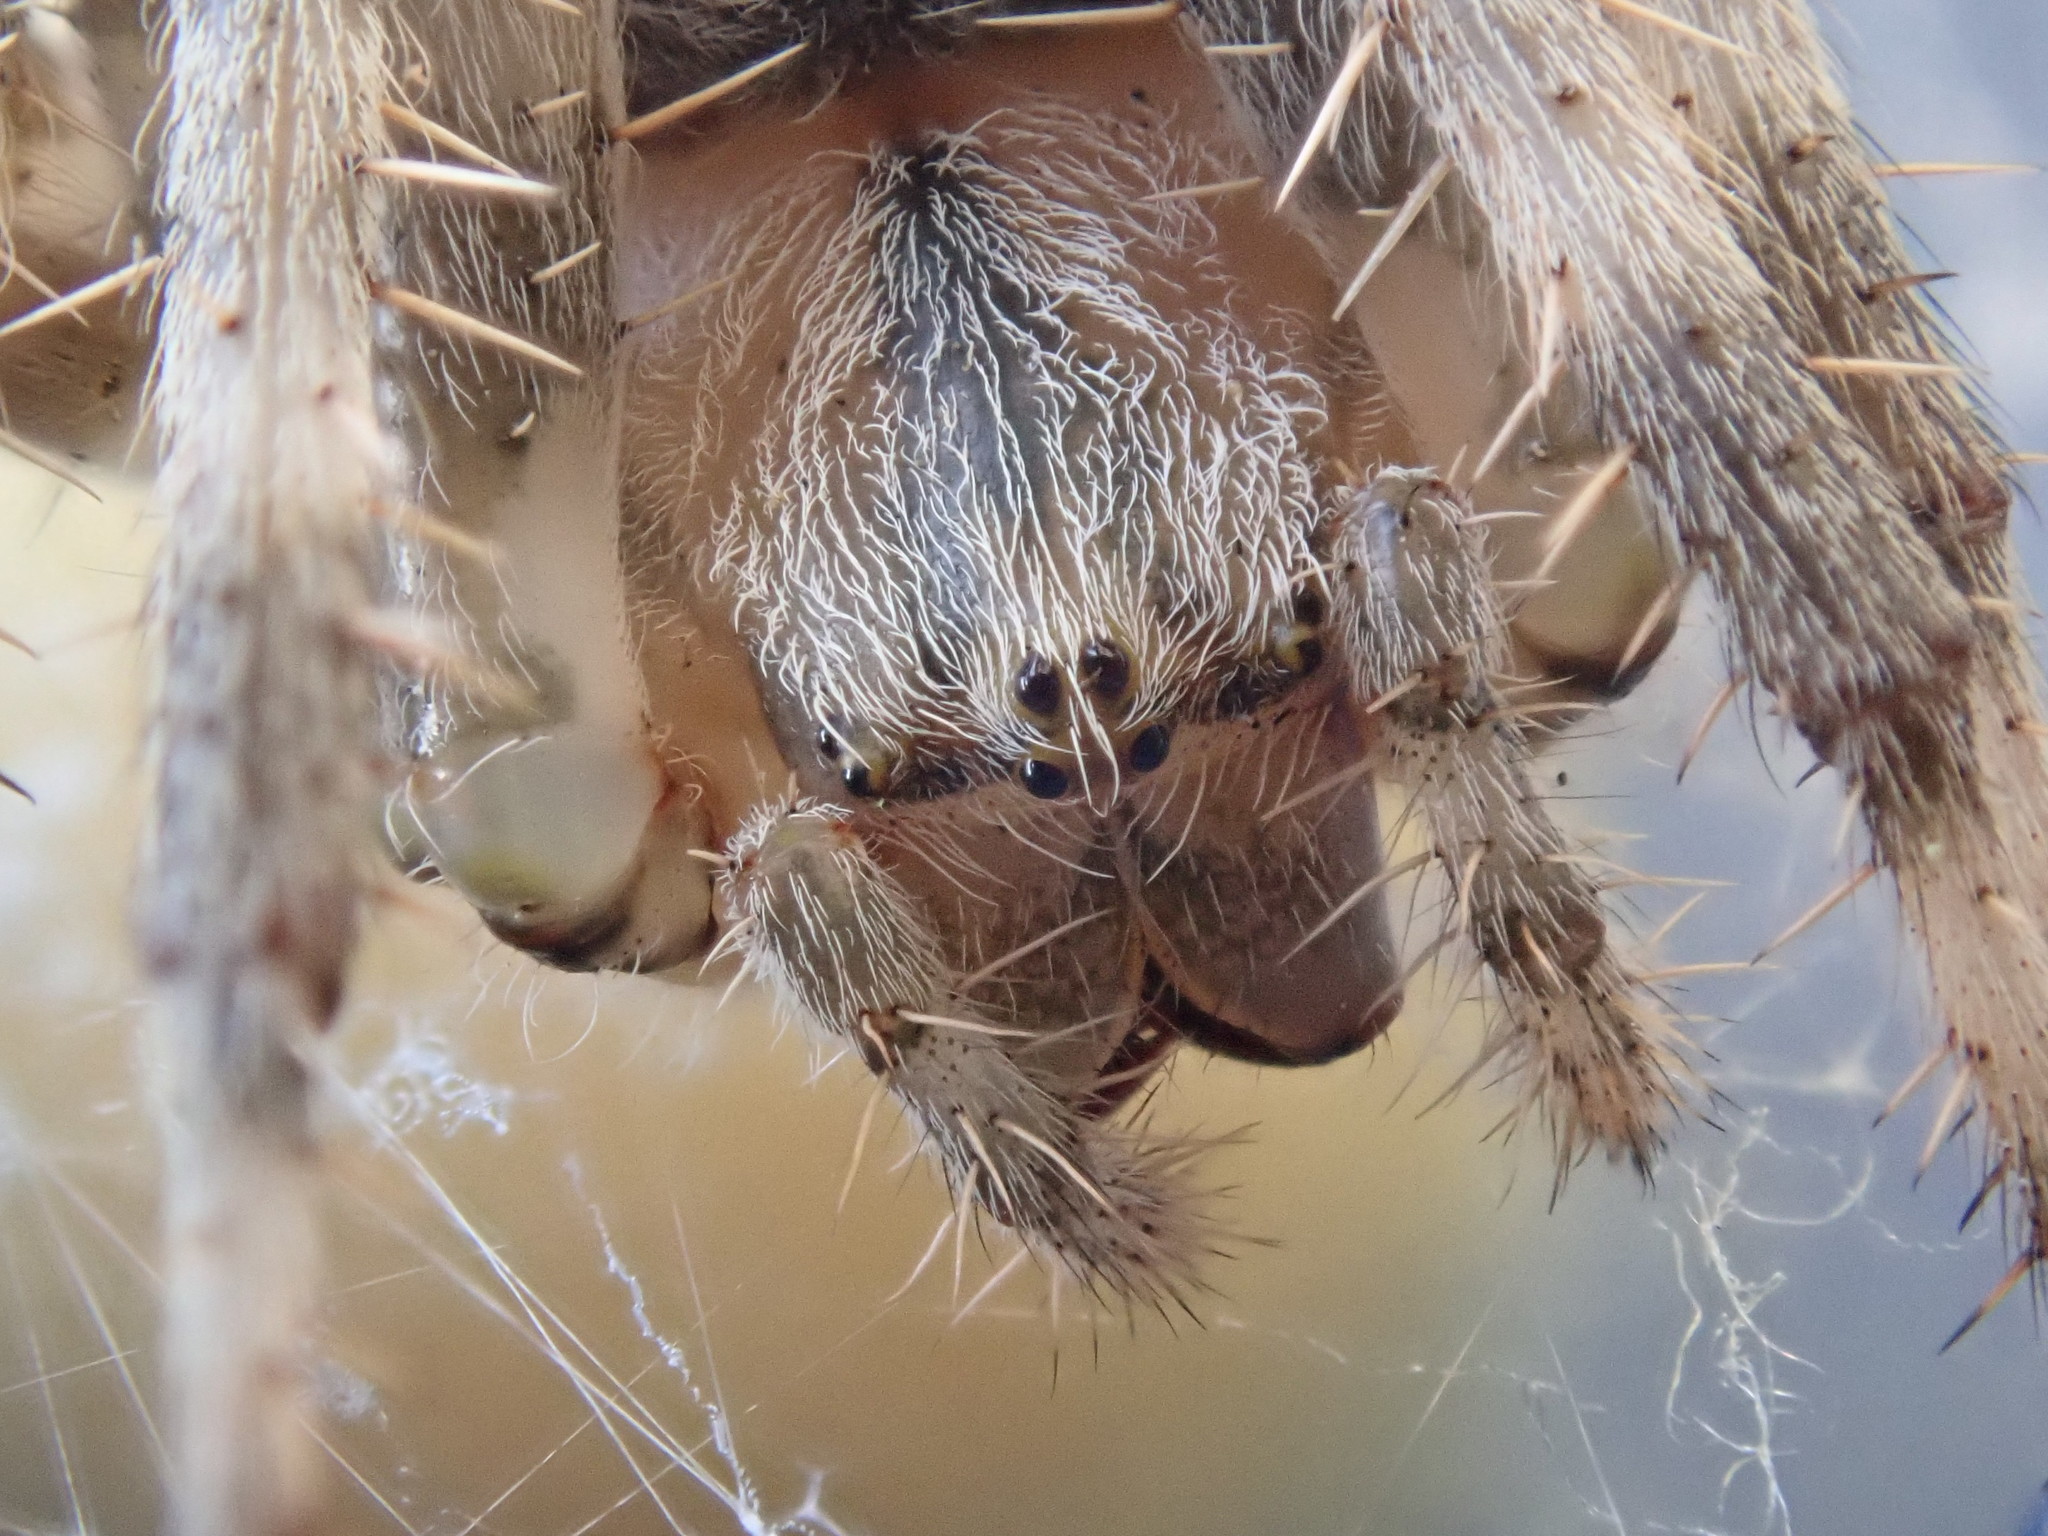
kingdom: Animalia
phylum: Arthropoda
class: Arachnida
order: Araneae
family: Araneidae
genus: Araneus
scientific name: Araneus diadematus
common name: Cross orbweaver
